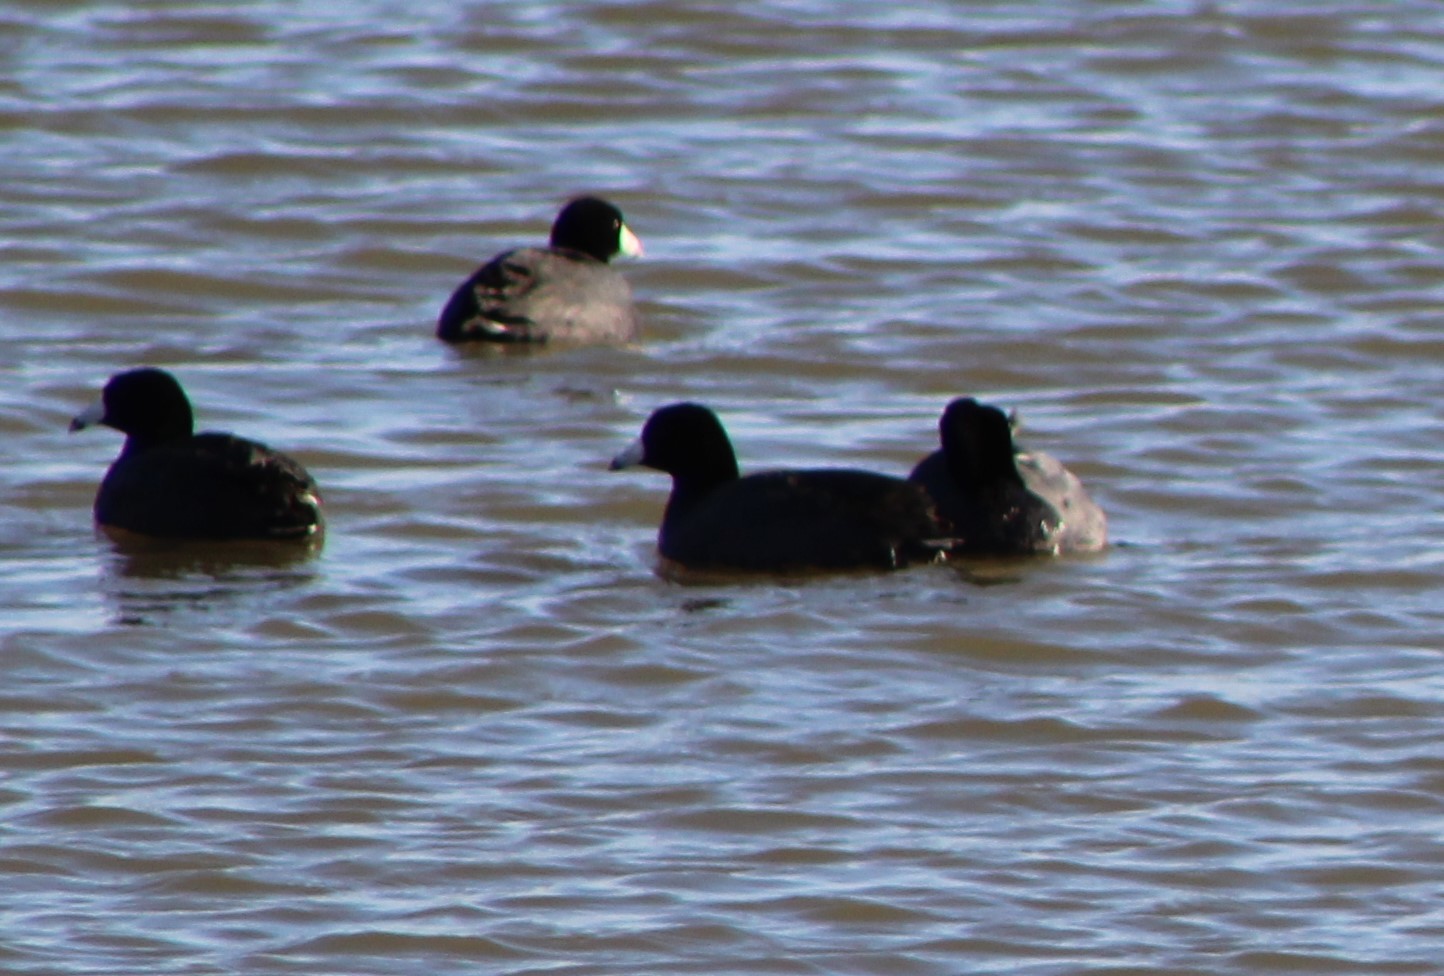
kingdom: Animalia
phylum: Chordata
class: Aves
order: Gruiformes
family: Rallidae
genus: Fulica
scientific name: Fulica americana
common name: American coot
